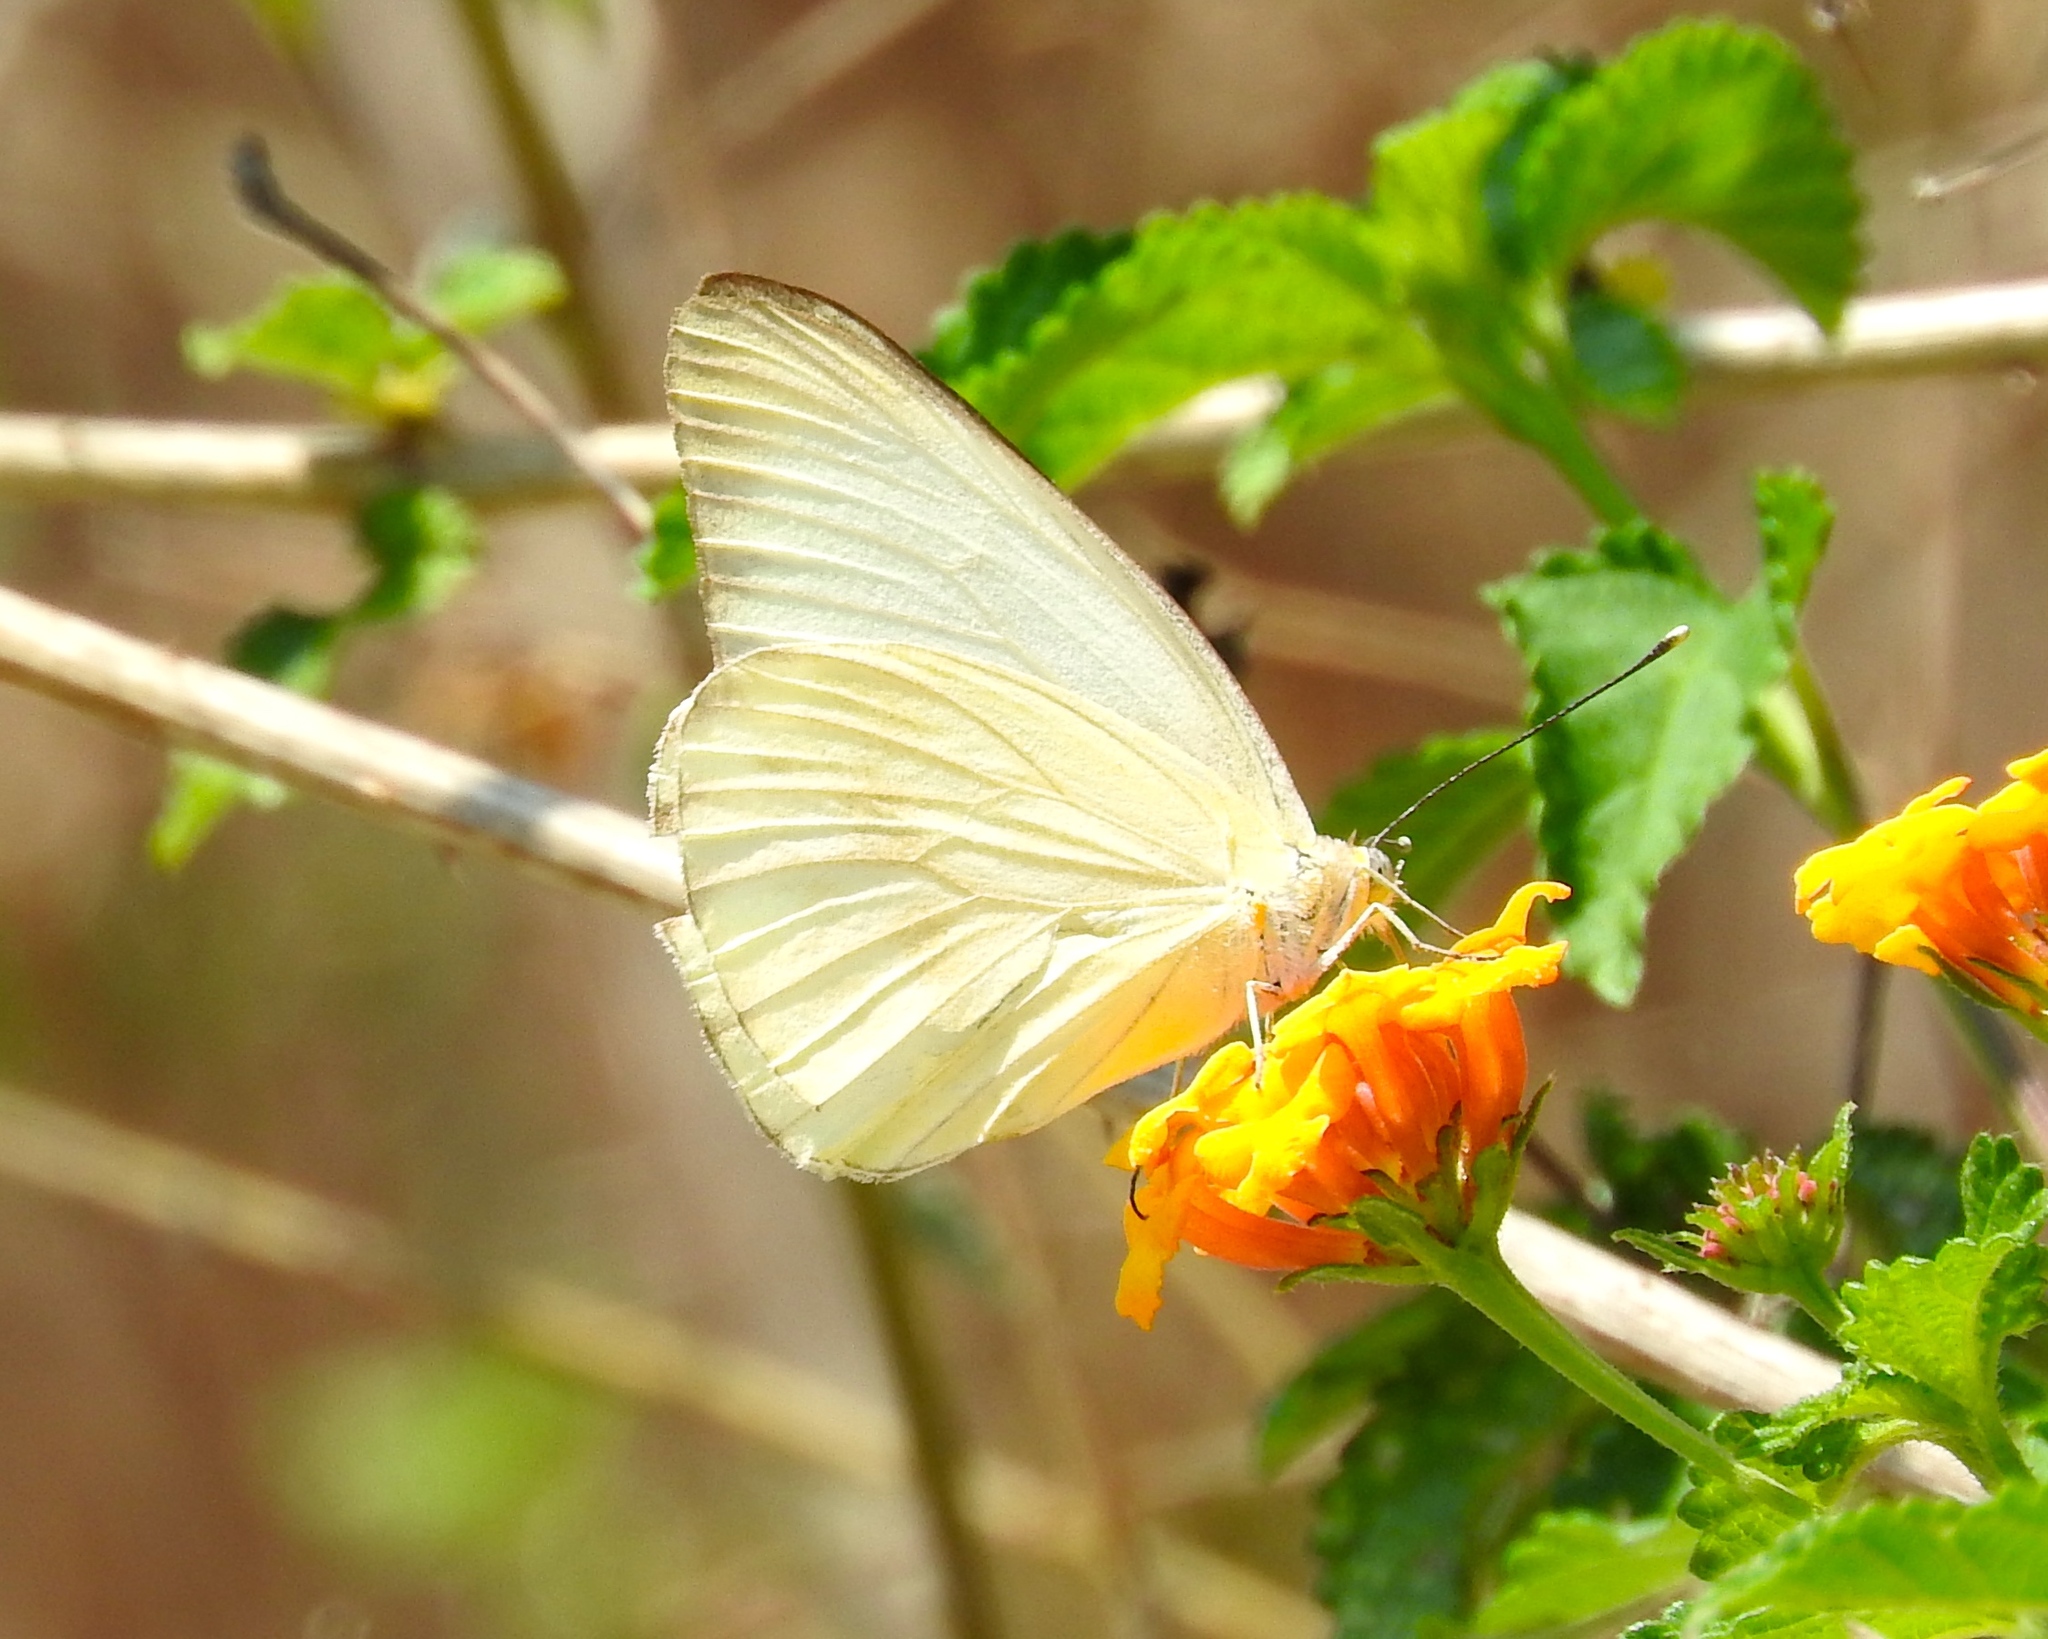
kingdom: Animalia
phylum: Arthropoda
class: Insecta
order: Lepidoptera
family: Pieridae
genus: Ascia
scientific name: Ascia monuste
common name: Great southern white
